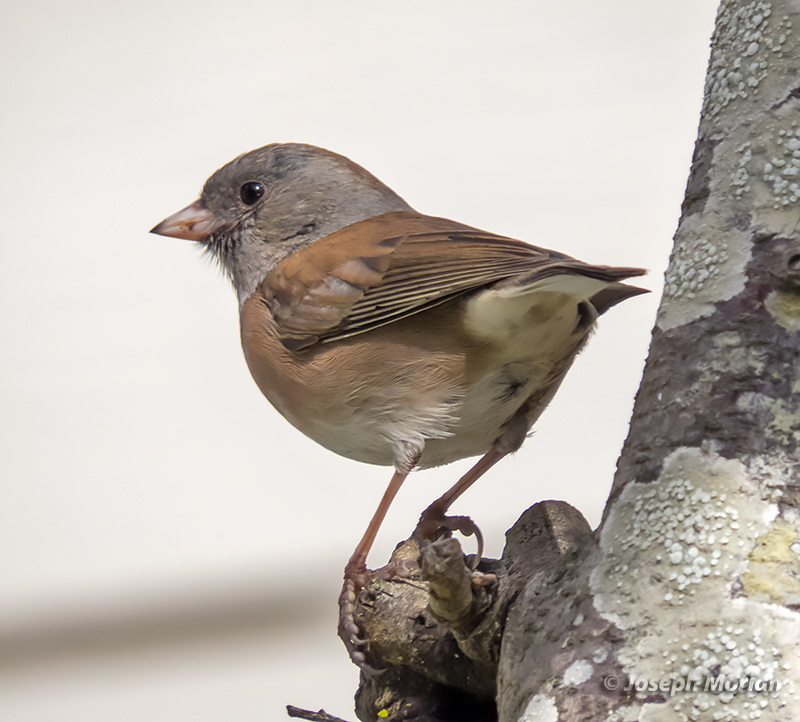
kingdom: Animalia
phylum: Chordata
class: Aves
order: Passeriformes
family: Passerellidae
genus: Junco
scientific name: Junco hyemalis
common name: Dark-eyed junco
